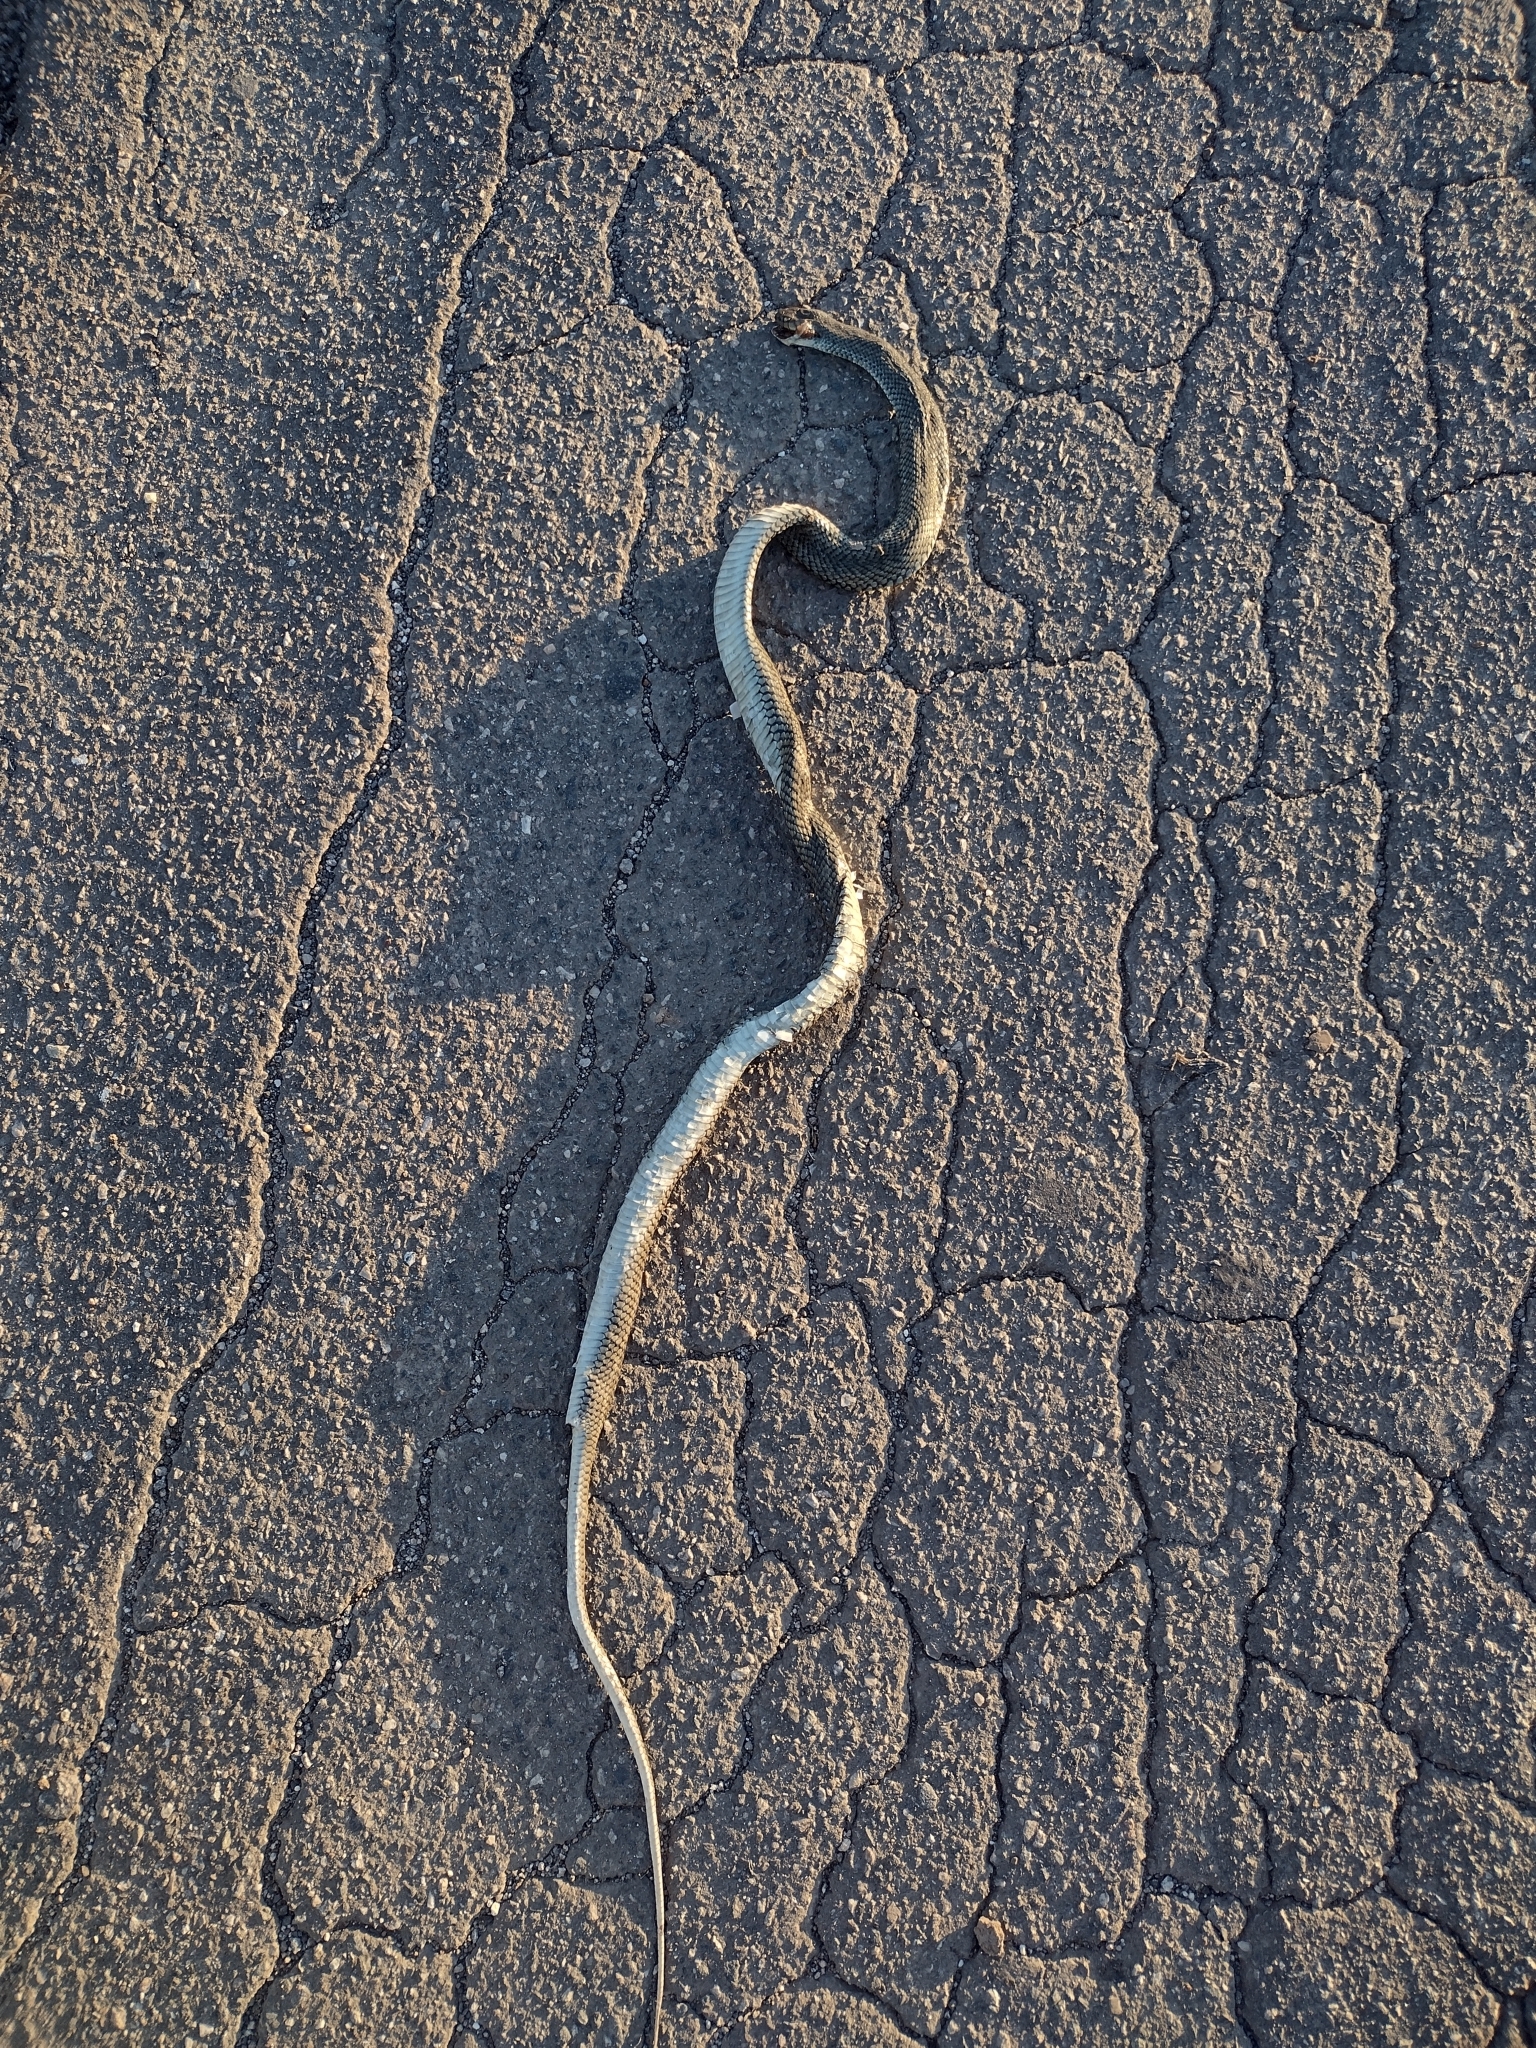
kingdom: Animalia
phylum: Chordata
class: Squamata
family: Colubridae
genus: Philodryas
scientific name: Philodryas patagoniensis
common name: Patagonia green racer
